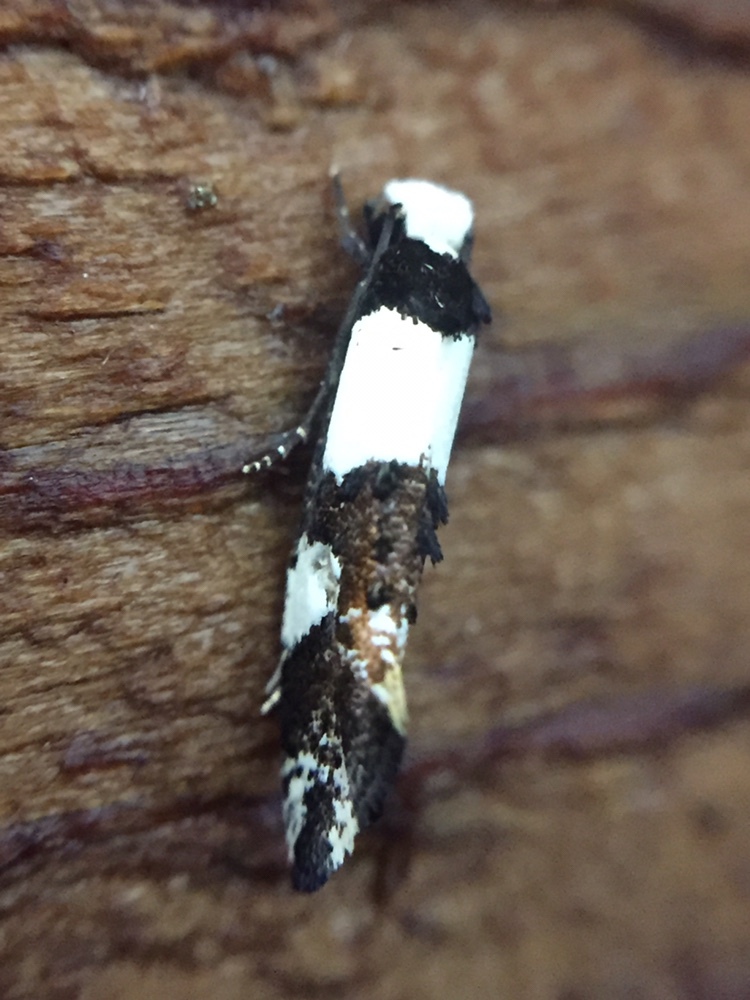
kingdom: Animalia
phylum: Arthropoda
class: Insecta
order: Lepidoptera
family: Tineidae
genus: Monopis
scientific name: Monopis icterogastra
